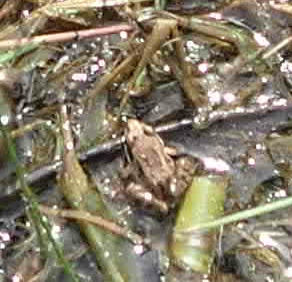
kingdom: Animalia
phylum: Chordata
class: Amphibia
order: Anura
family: Ranidae
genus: Lithobates
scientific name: Lithobates sylvaticus
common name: Wood frog
